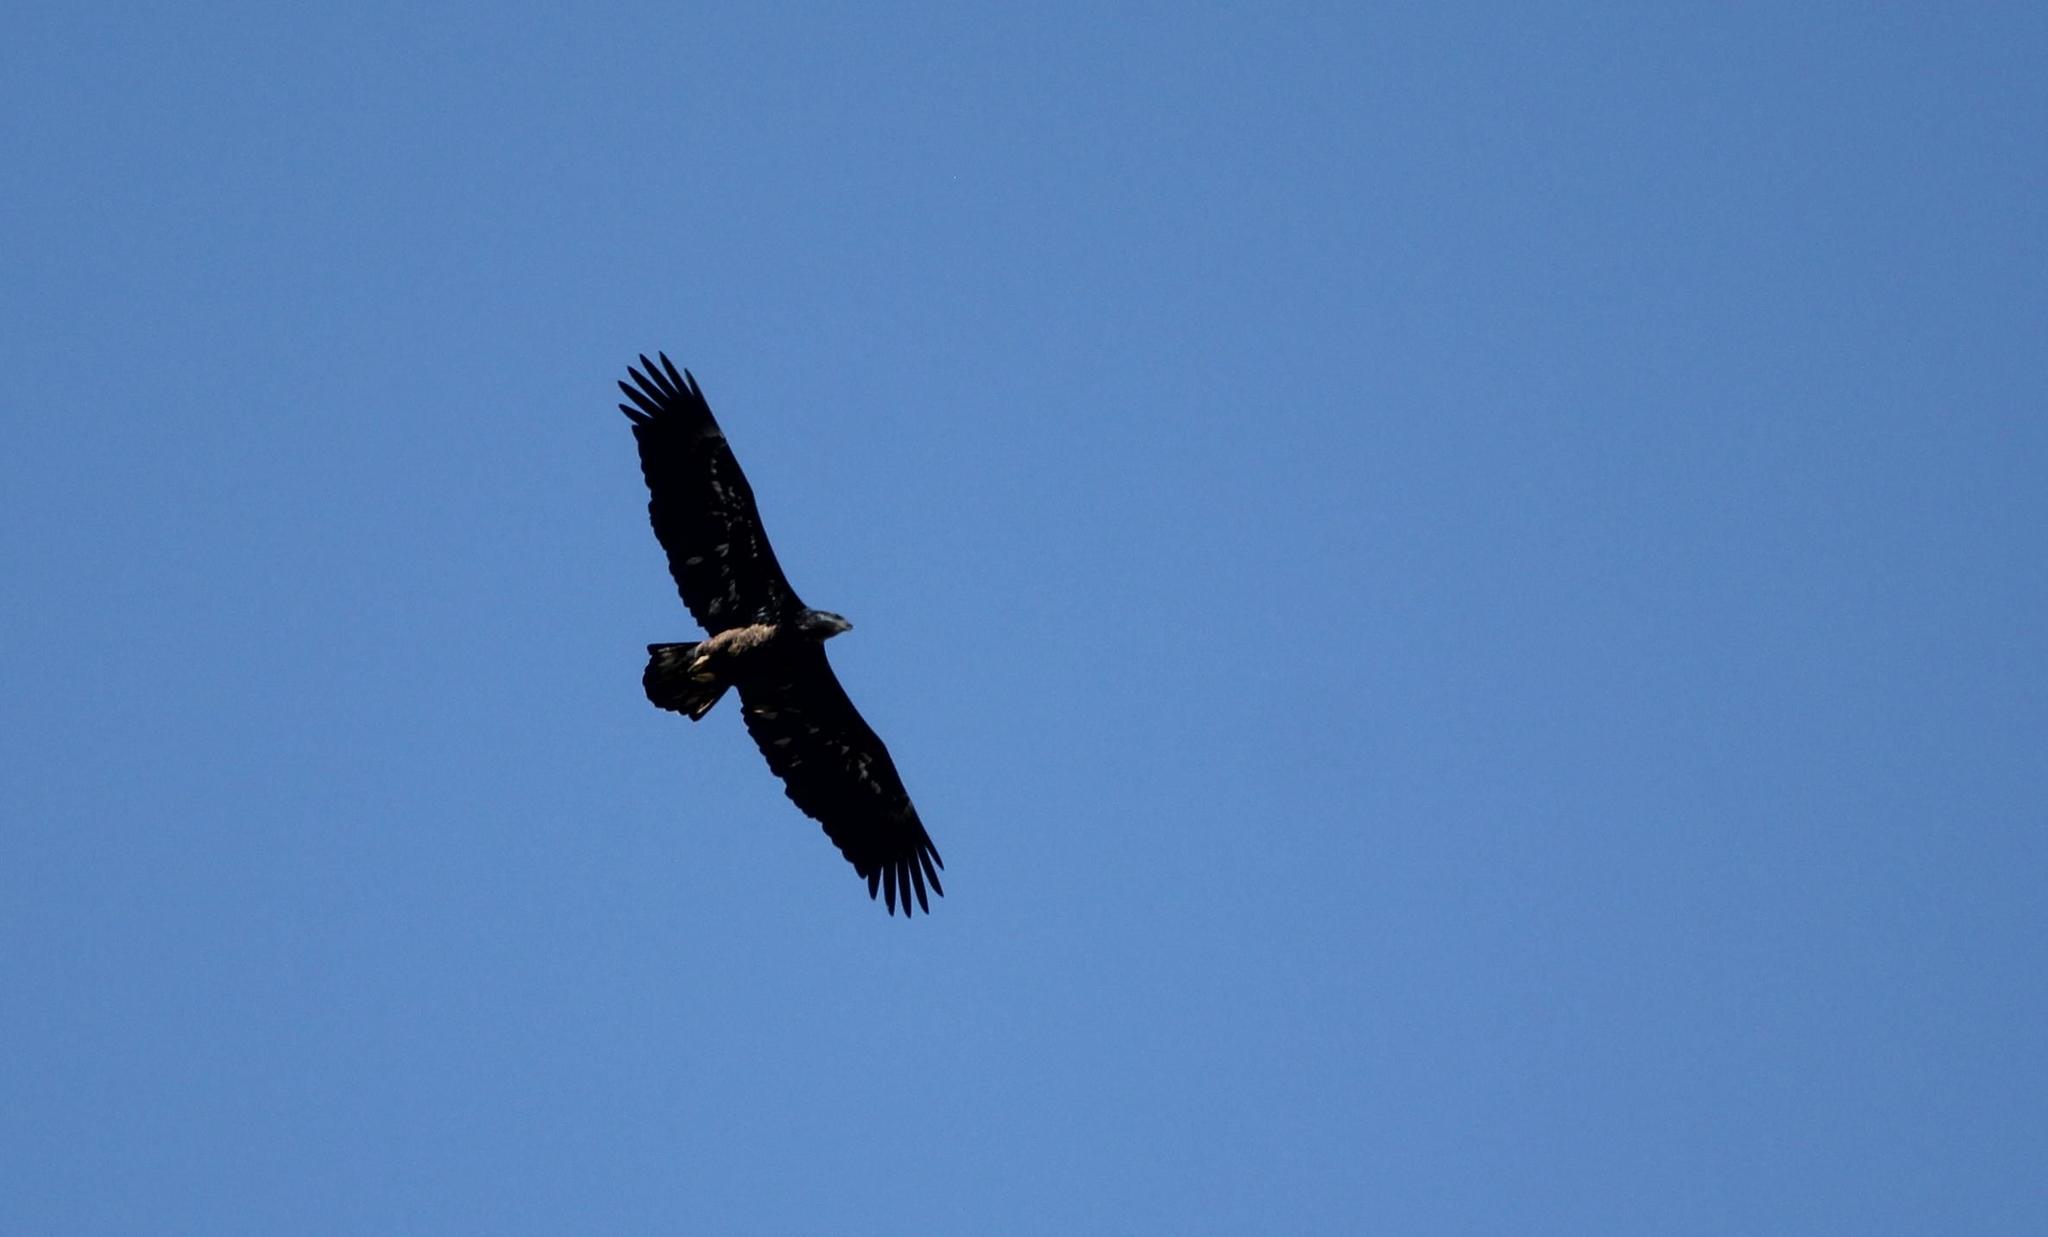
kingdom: Animalia
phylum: Chordata
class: Aves
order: Accipitriformes
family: Accipitridae
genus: Haliaeetus
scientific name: Haliaeetus leucocephalus
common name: Bald eagle
